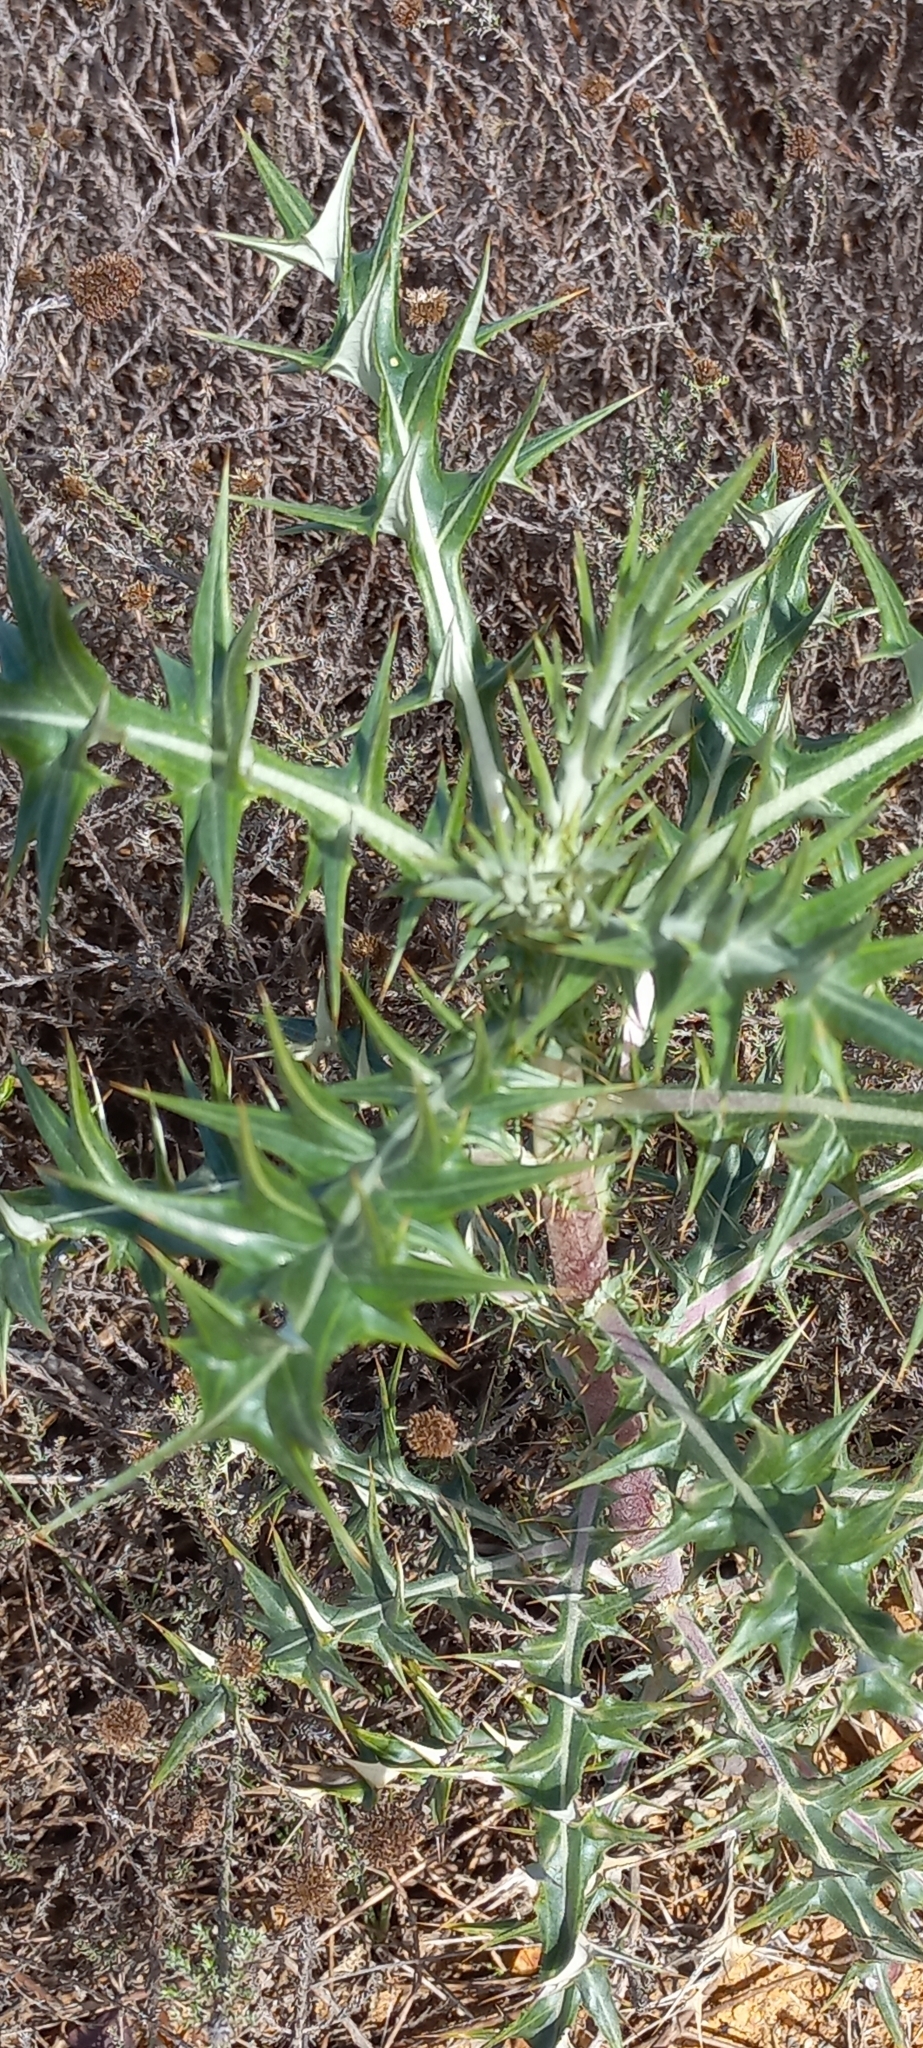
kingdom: Plantae
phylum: Tracheophyta
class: Magnoliopsida
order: Asterales
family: Asteraceae
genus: Berkheya
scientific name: Berkheya rigida
